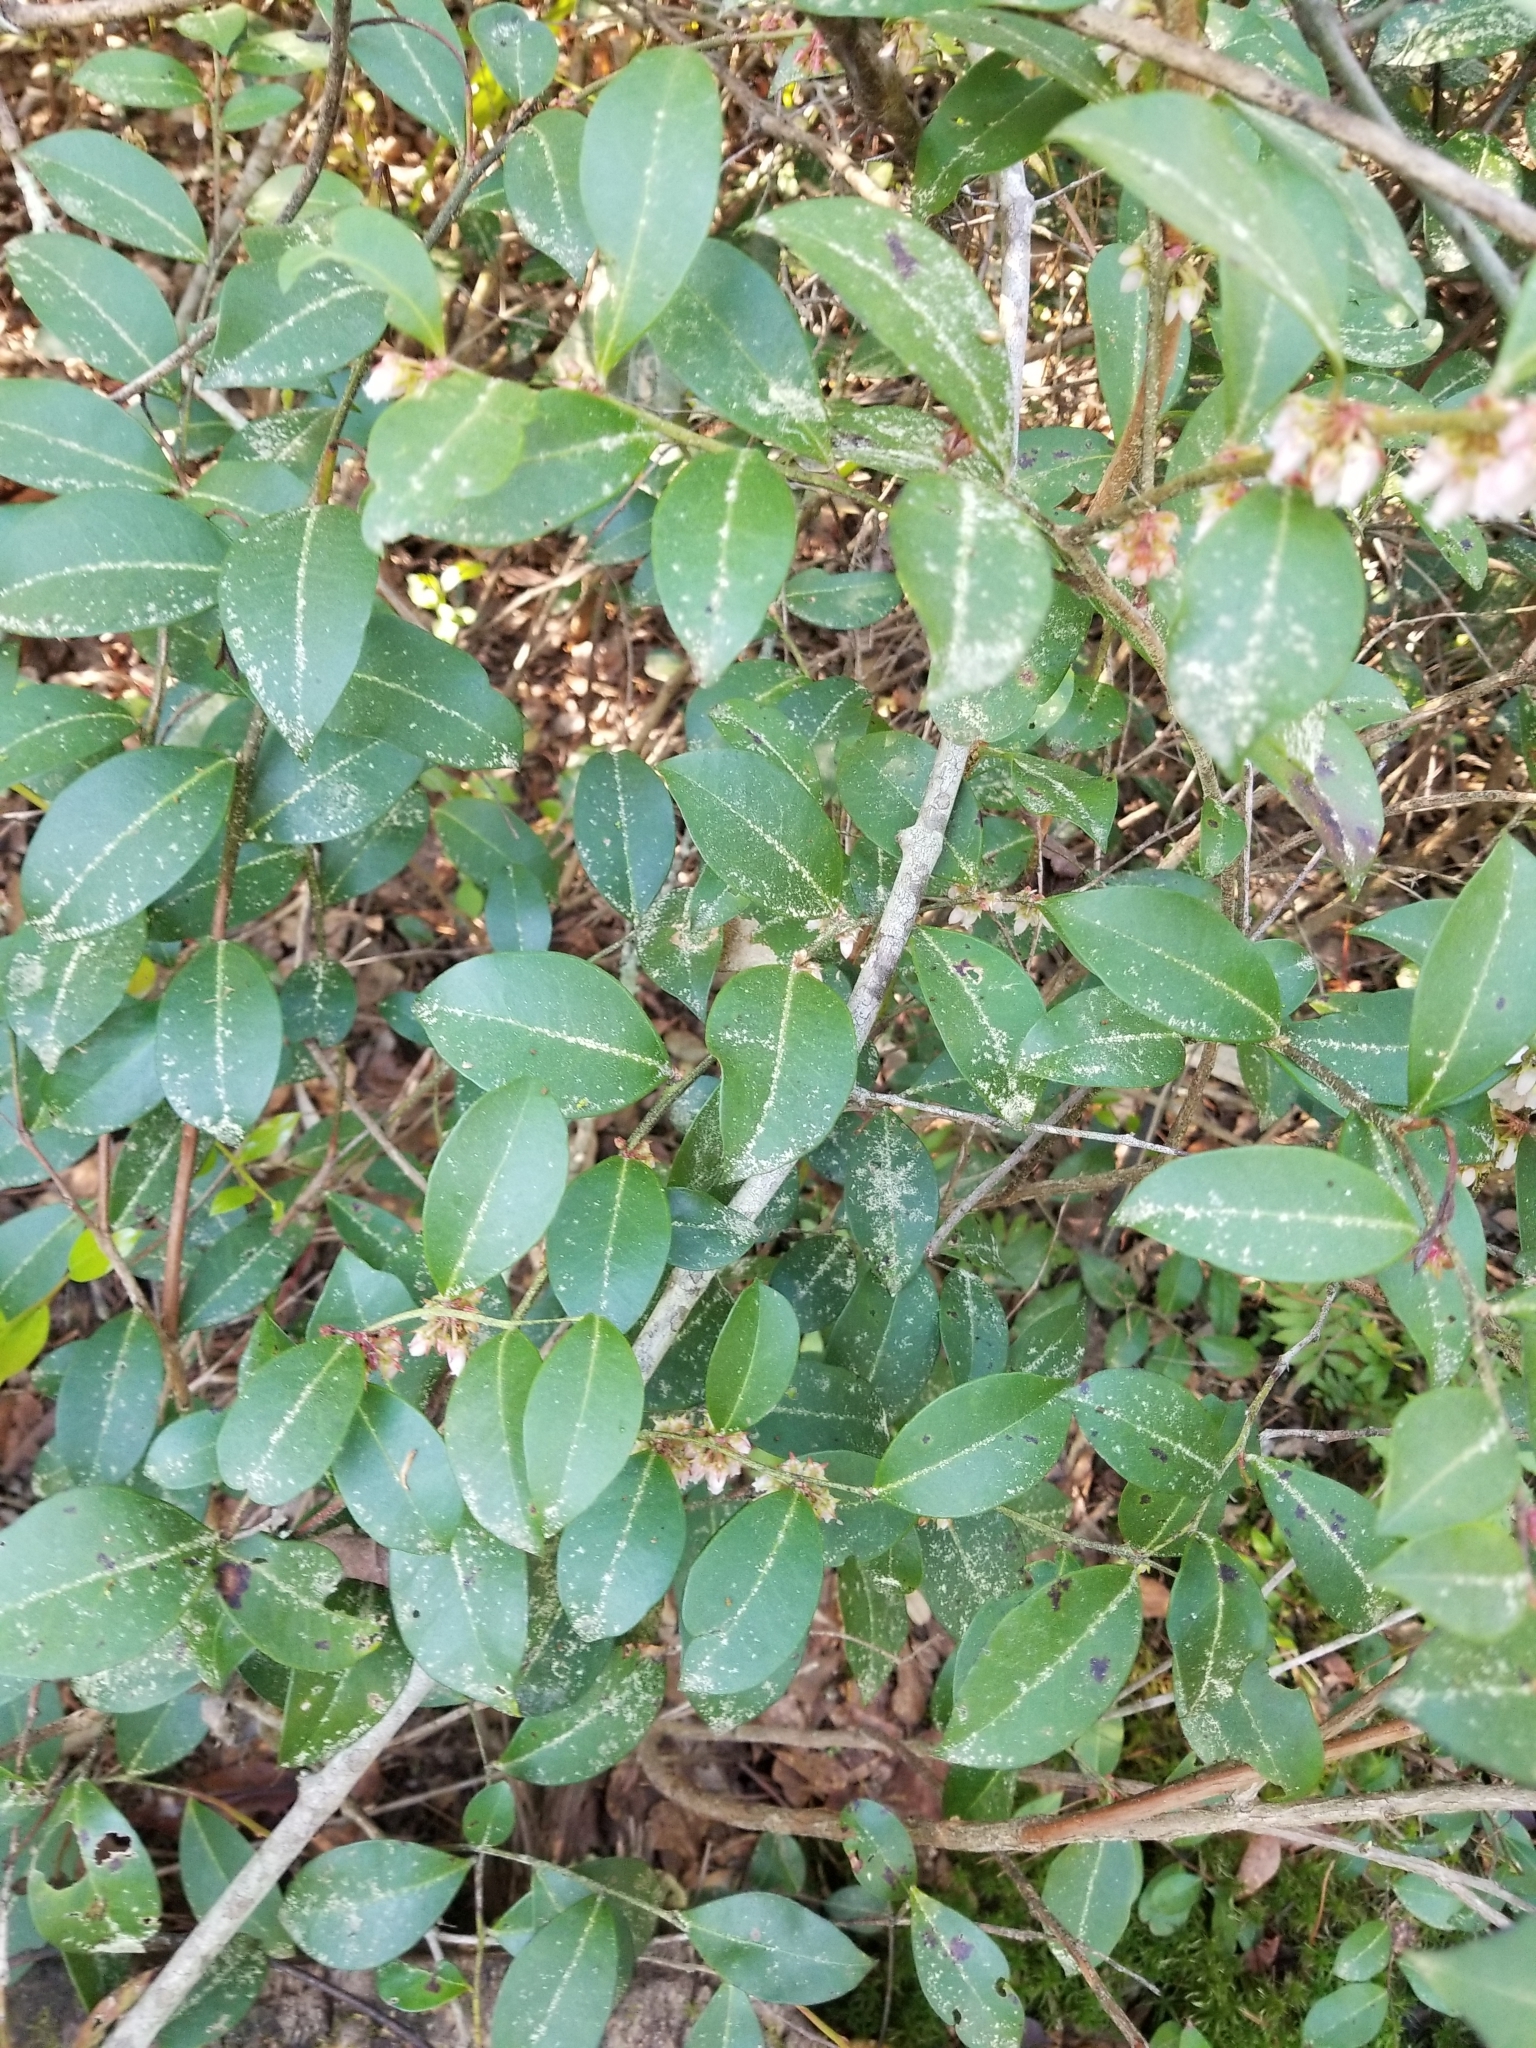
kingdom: Plantae
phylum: Tracheophyta
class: Magnoliopsida
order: Ericales
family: Ericaceae
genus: Lyonia
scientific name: Lyonia lucida
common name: Fetterbush
